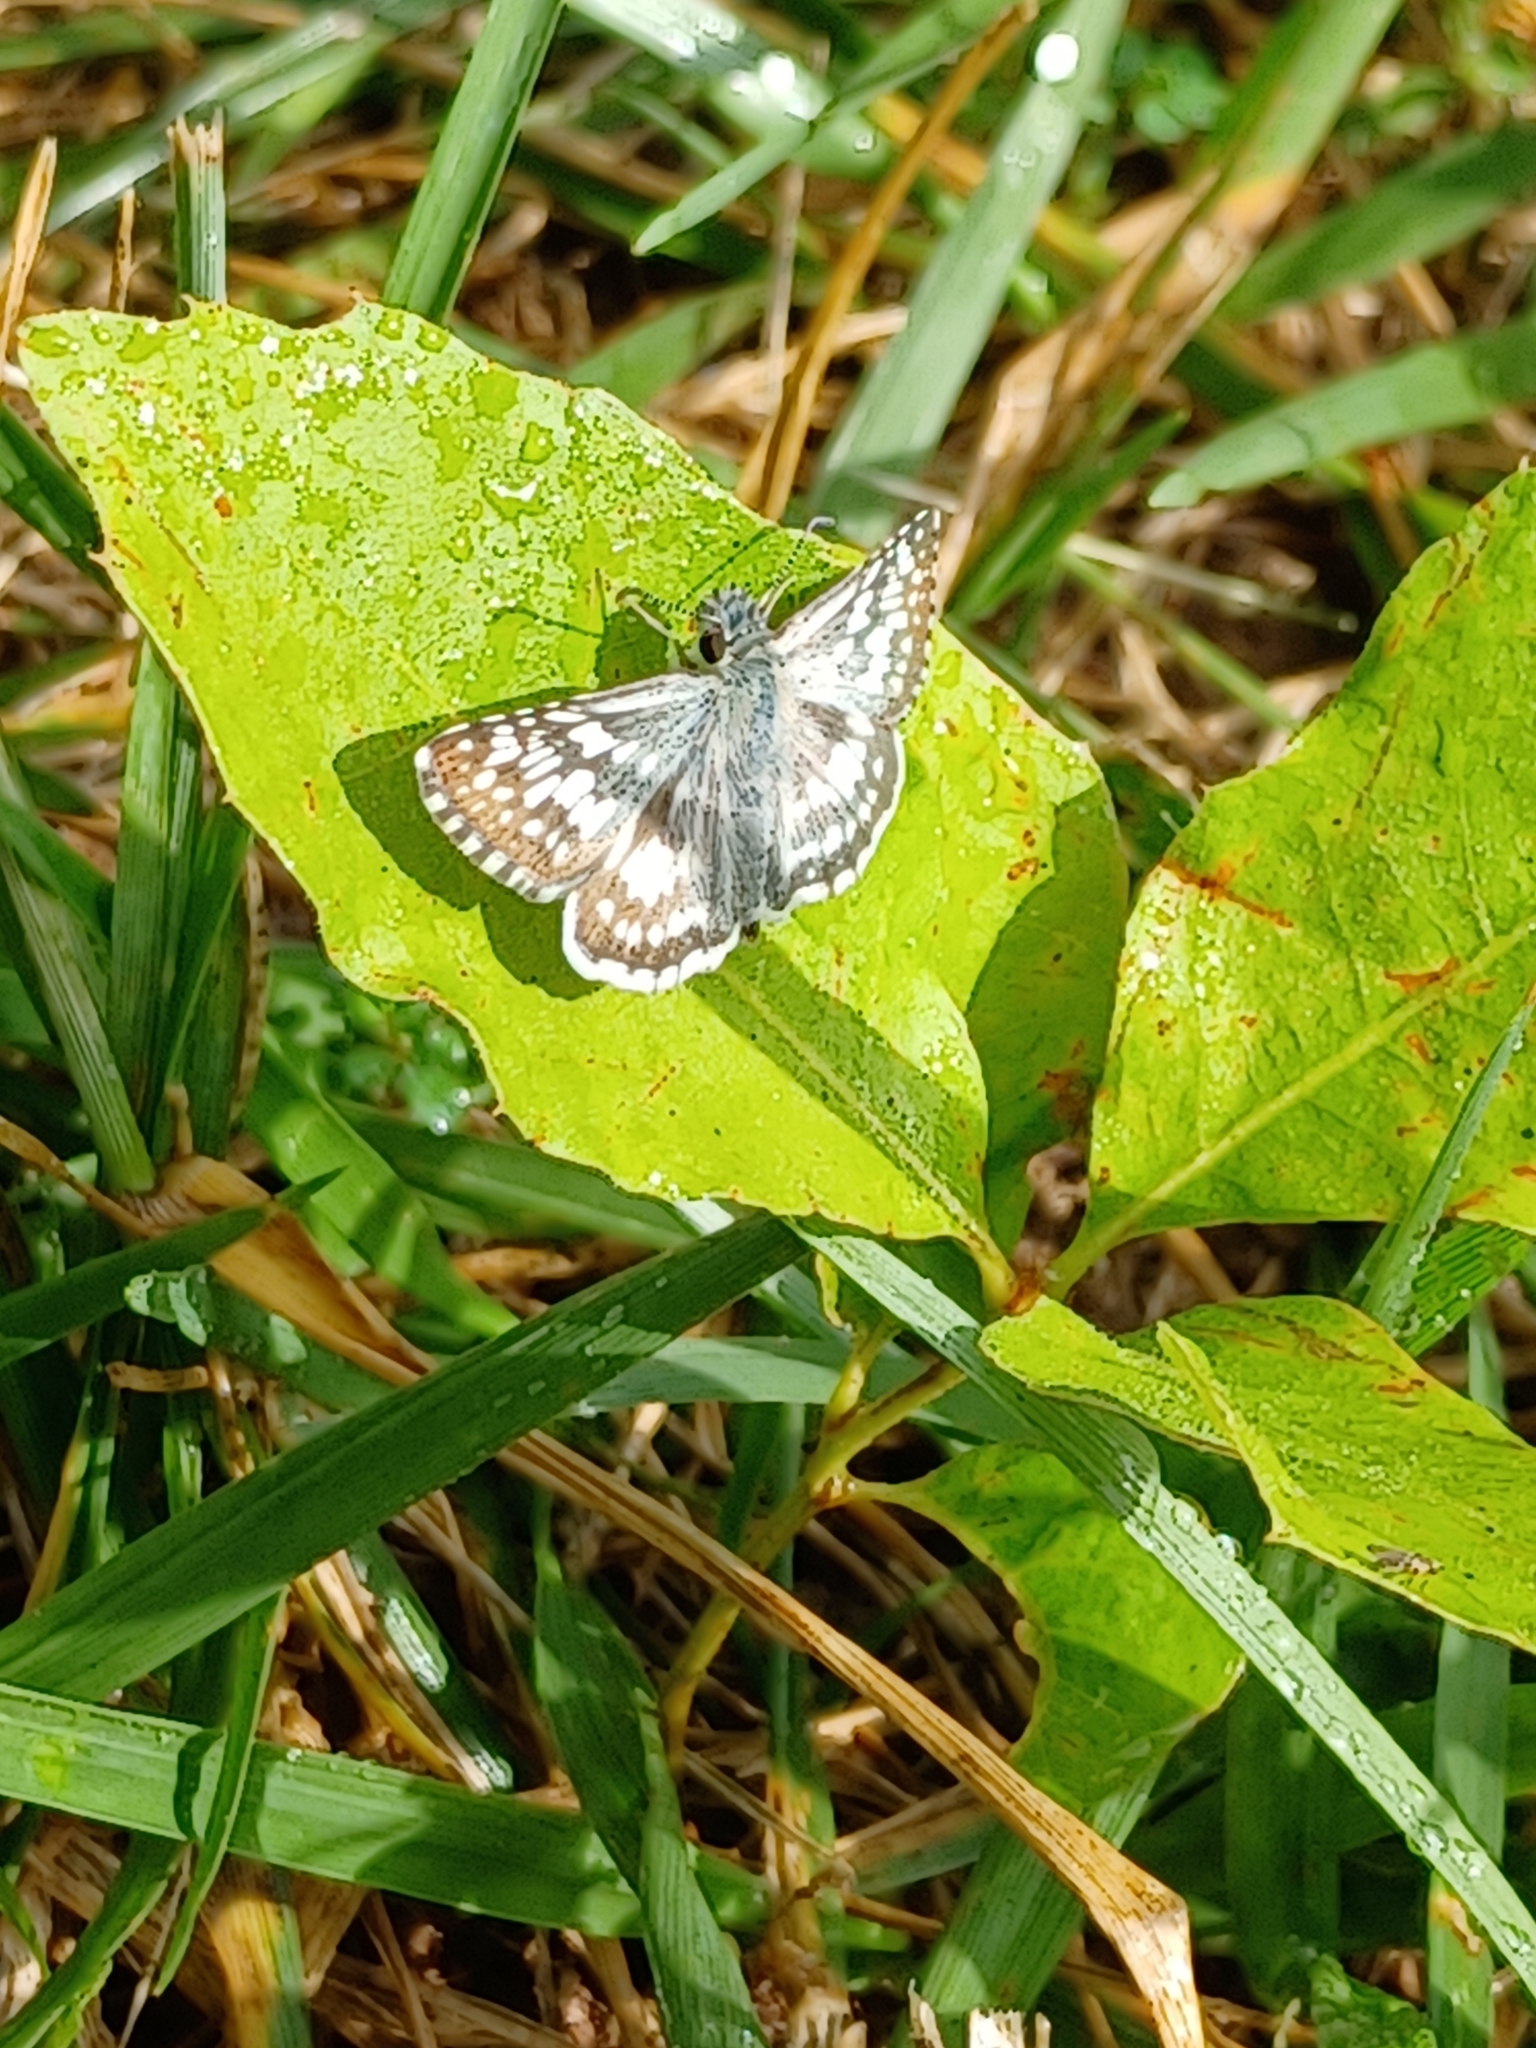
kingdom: Animalia
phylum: Arthropoda
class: Insecta
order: Lepidoptera
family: Hesperiidae
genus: Burnsius
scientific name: Burnsius
